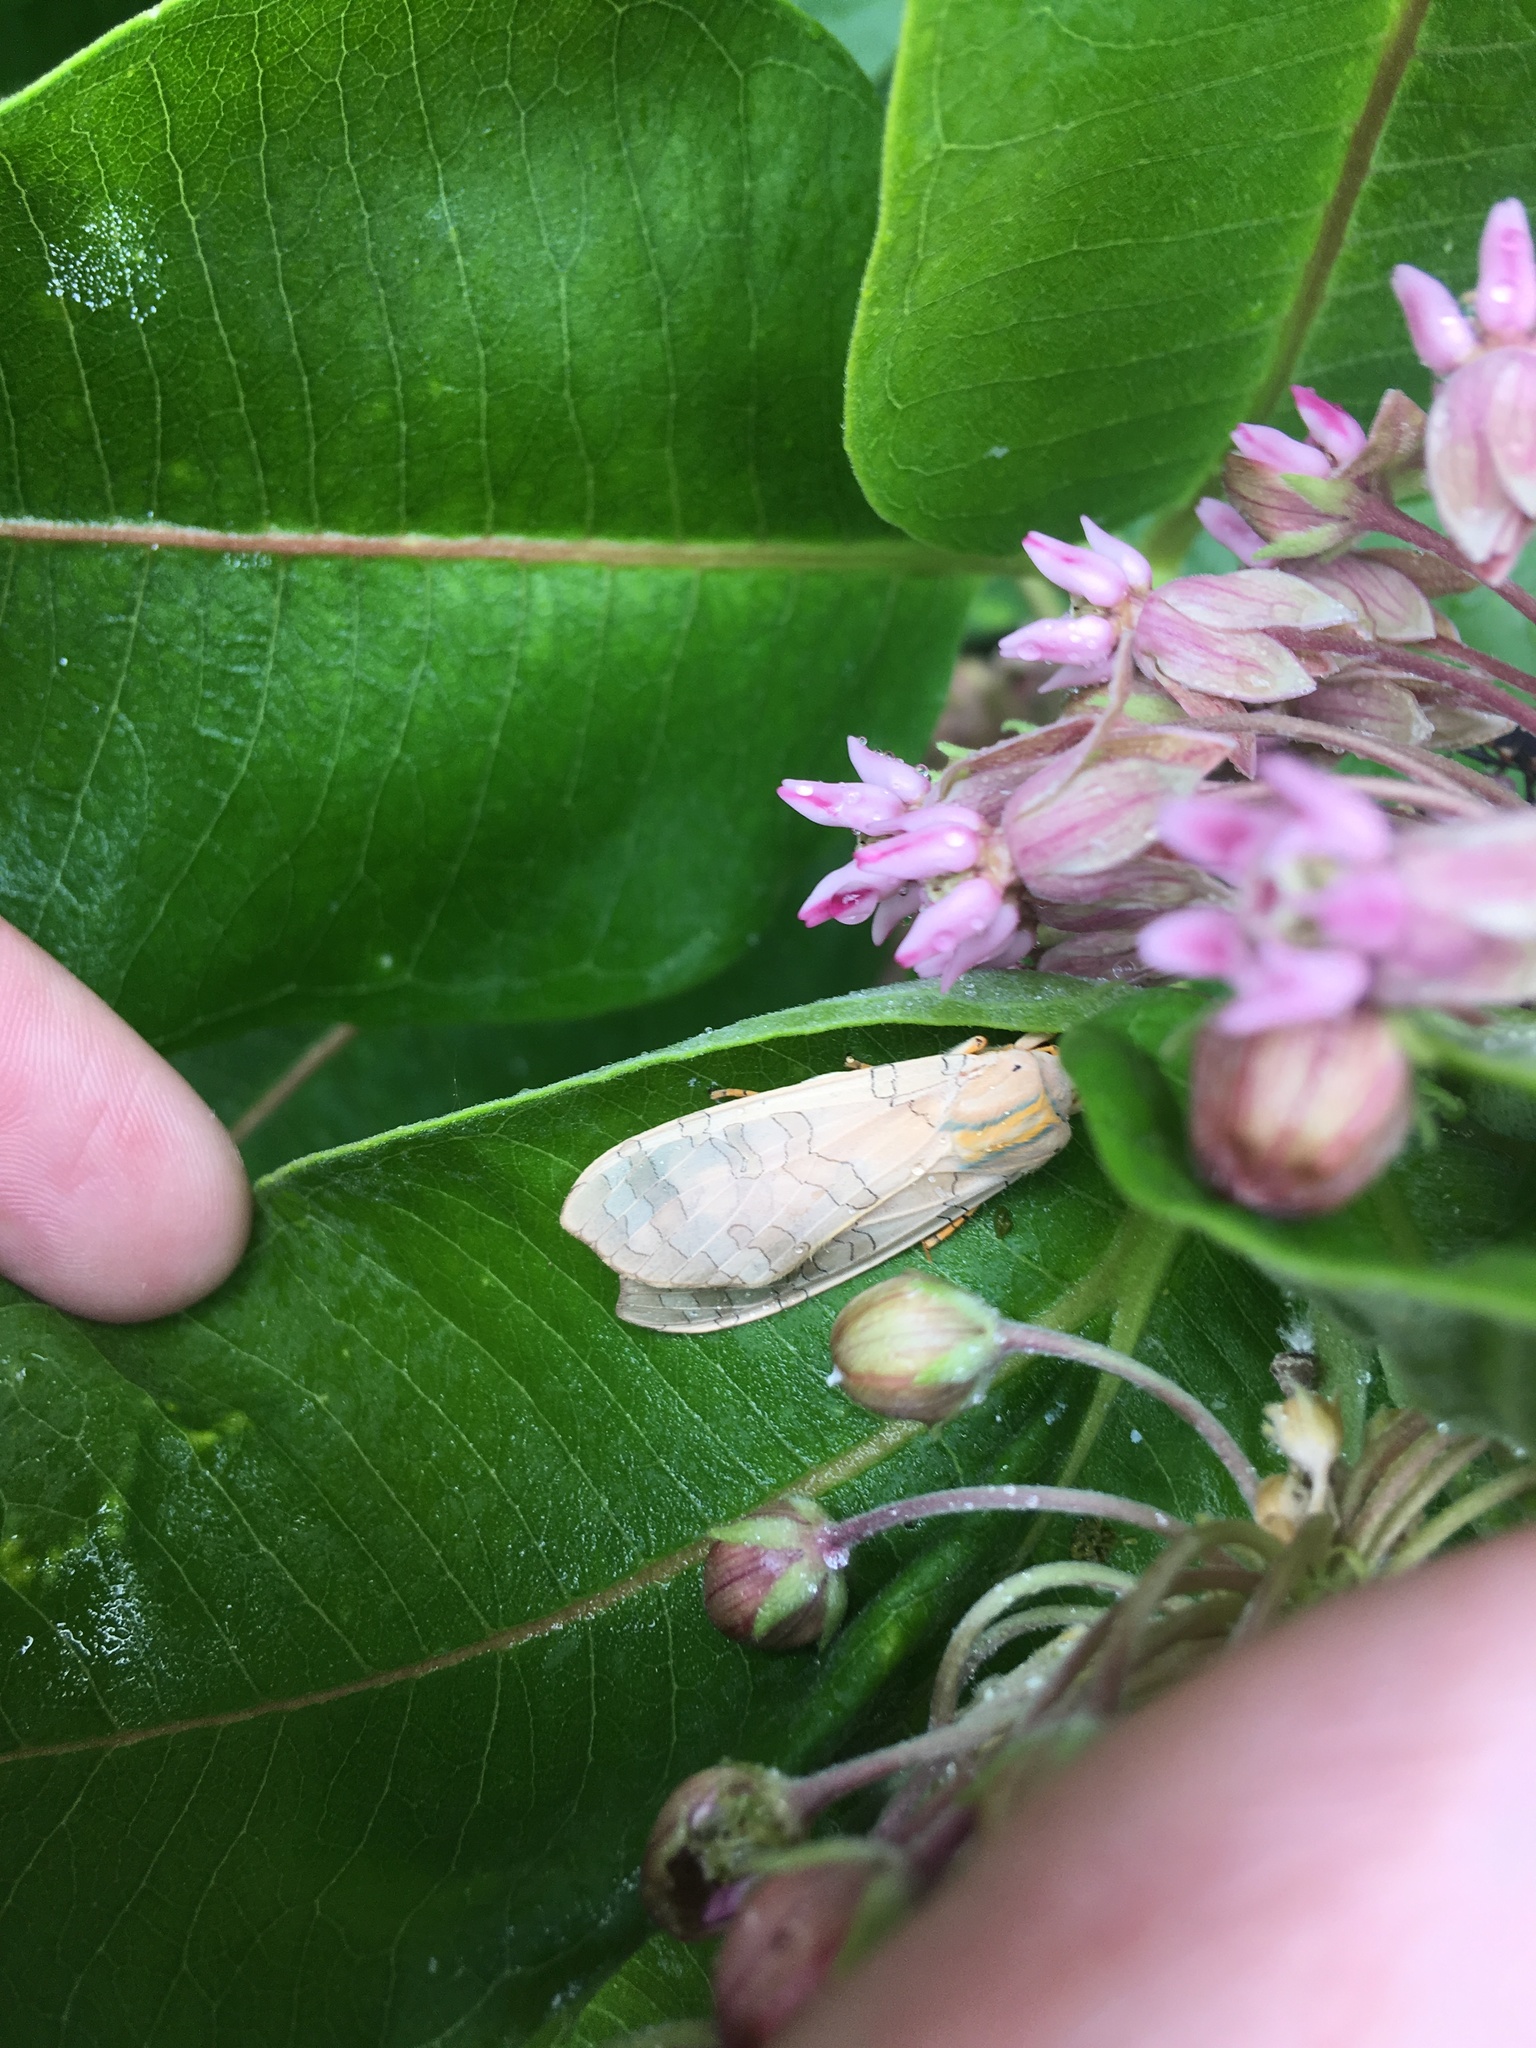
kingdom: Animalia
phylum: Arthropoda
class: Insecta
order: Lepidoptera
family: Erebidae
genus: Halysidota
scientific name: Halysidota tessellaris
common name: Banded tussock moth
